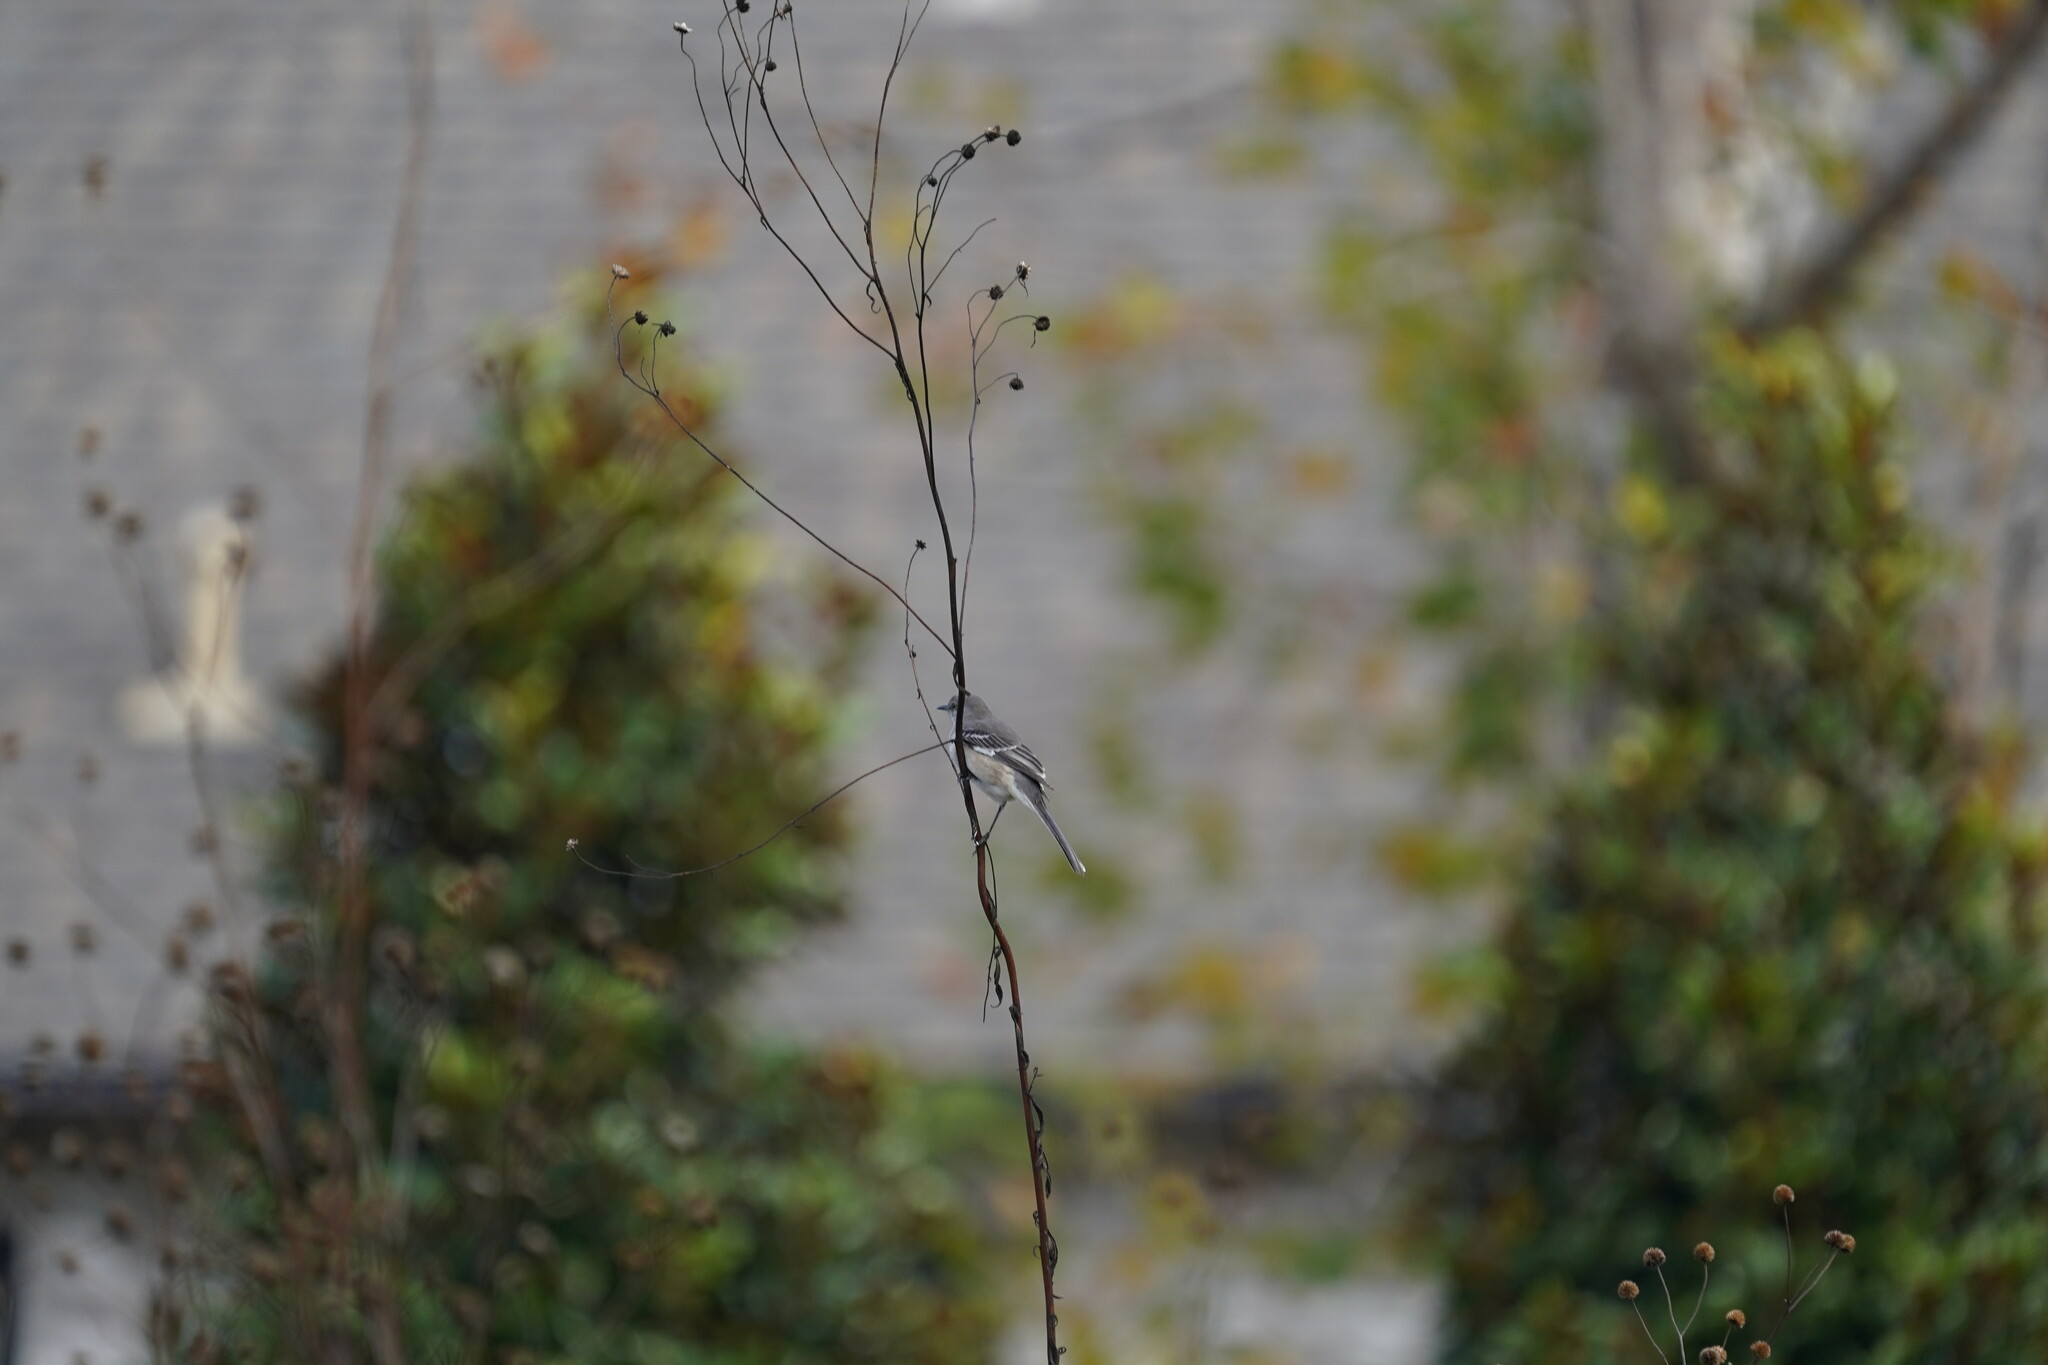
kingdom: Animalia
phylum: Chordata
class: Aves
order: Passeriformes
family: Mimidae
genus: Mimus
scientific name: Mimus polyglottos
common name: Northern mockingbird
